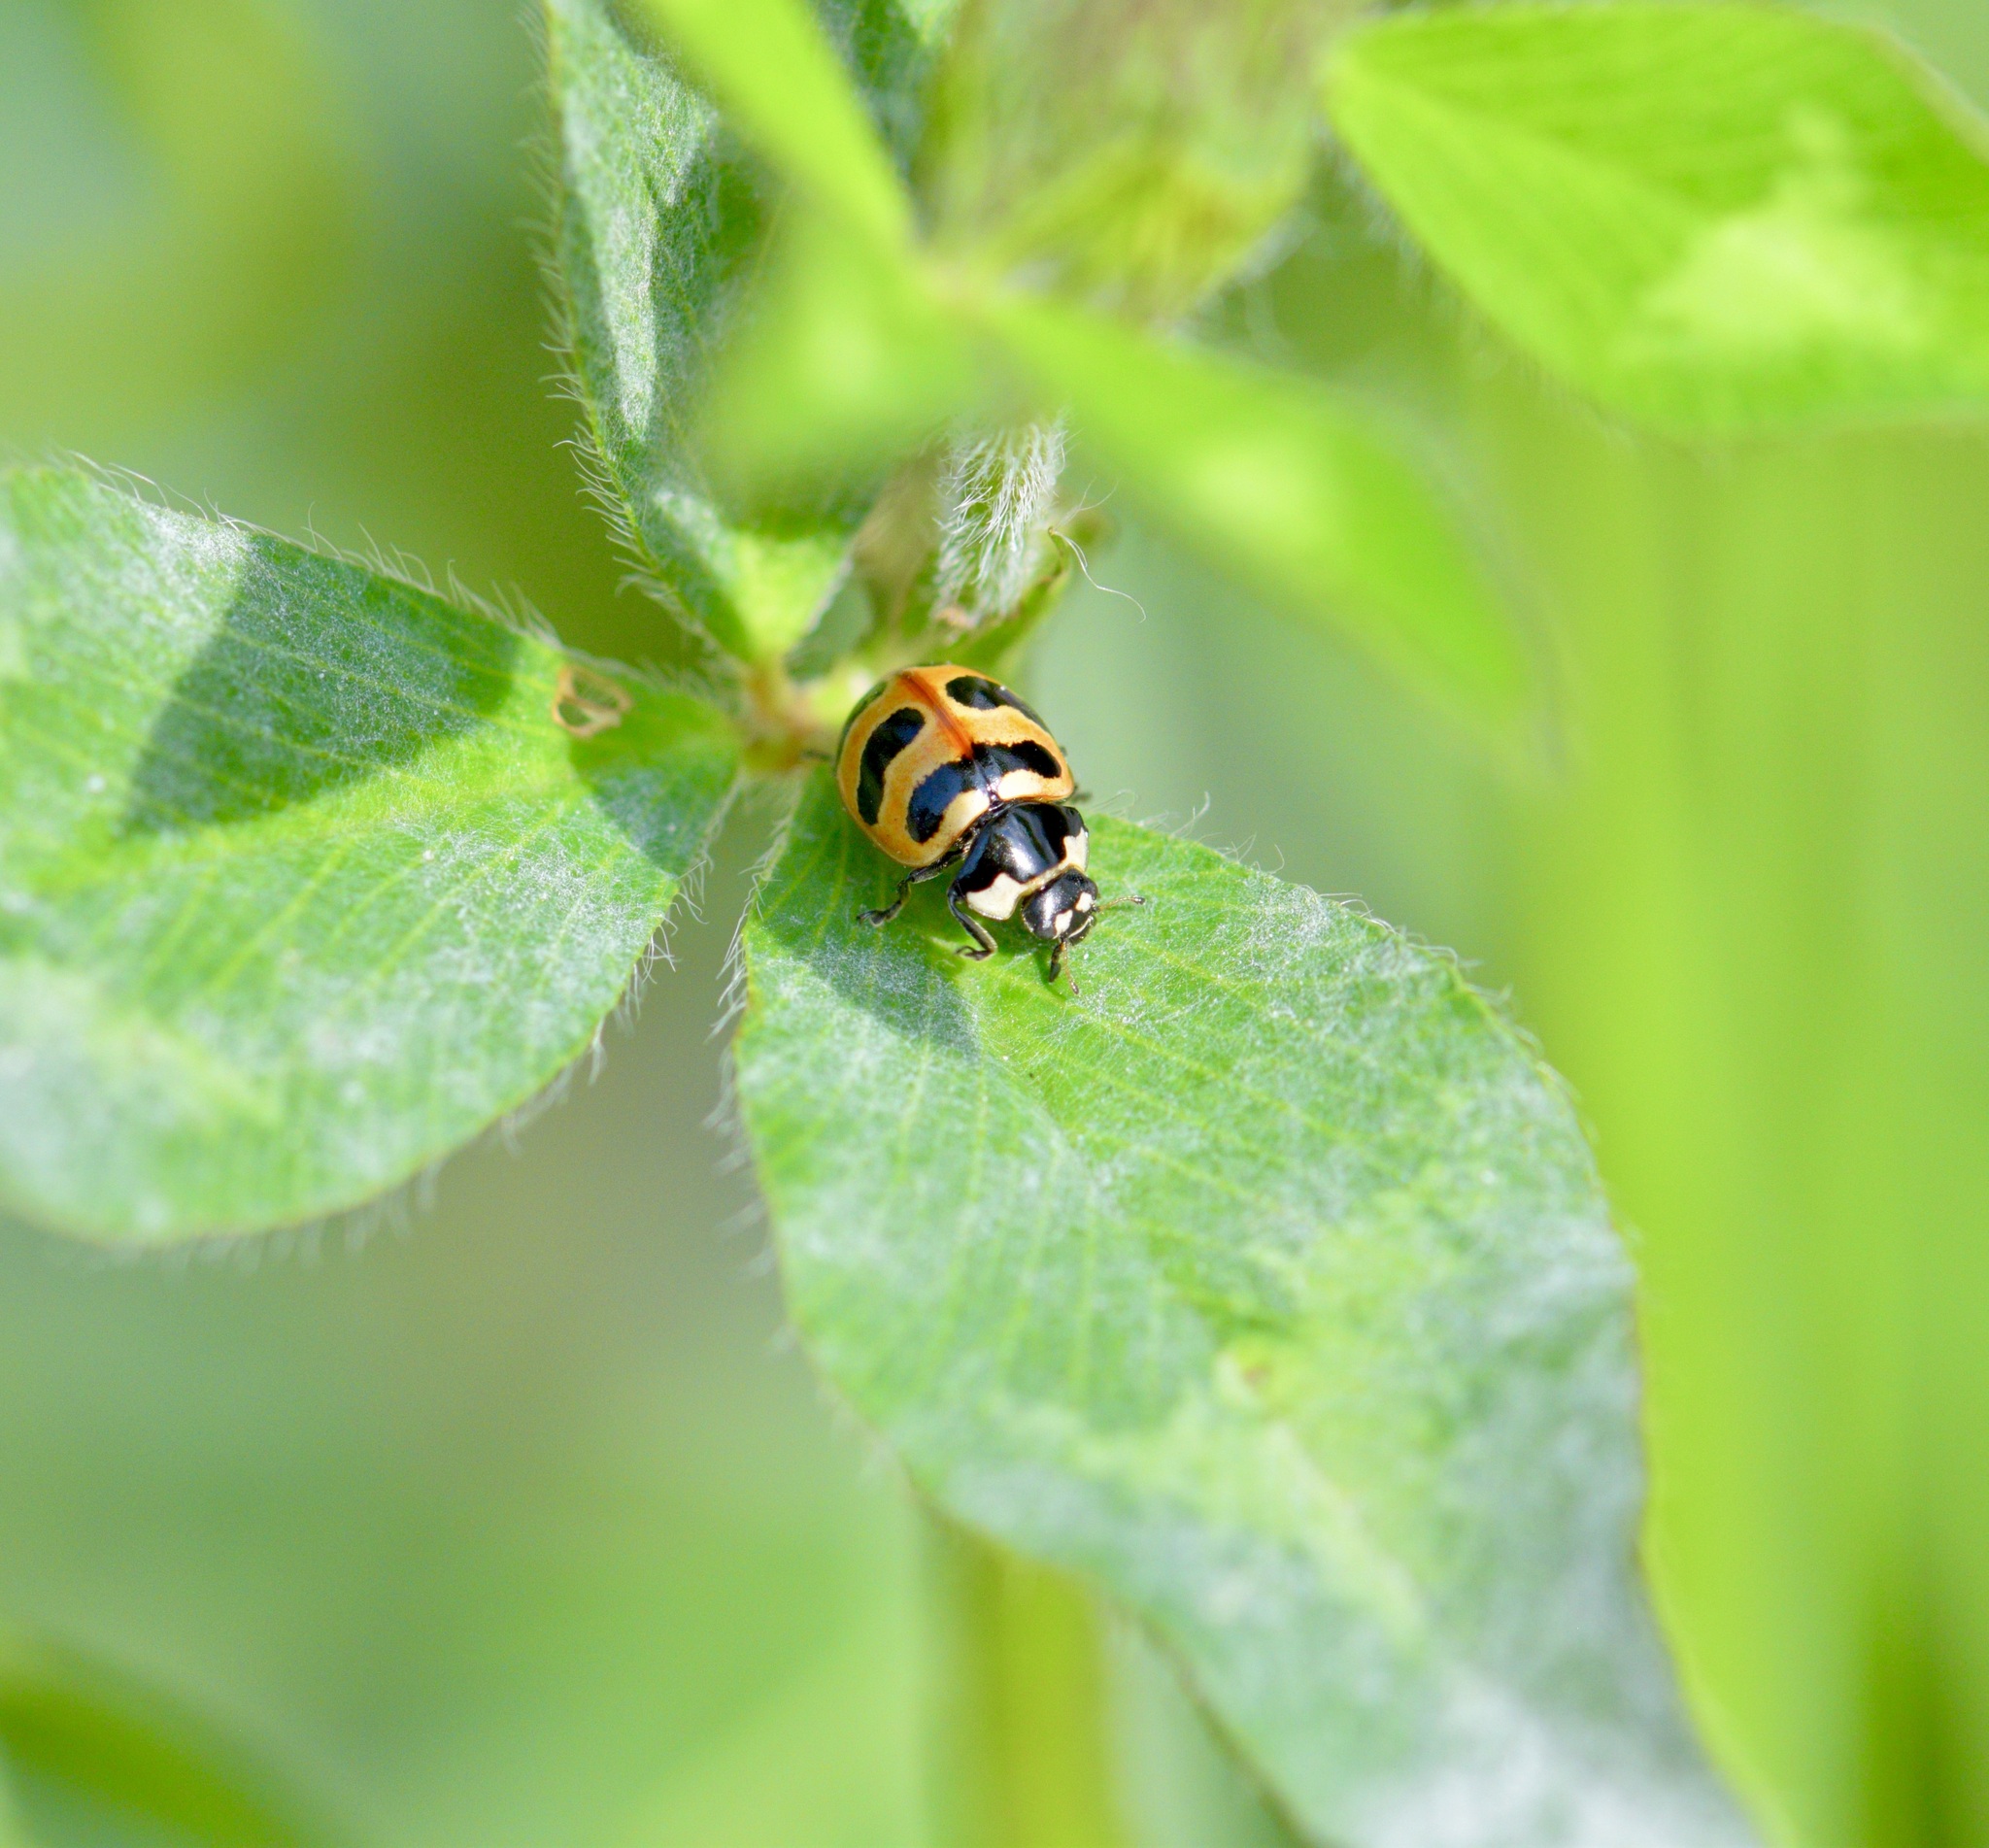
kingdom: Animalia
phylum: Arthropoda
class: Insecta
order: Coleoptera
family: Coccinellidae
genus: Coccinella
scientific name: Coccinella trifasciata
